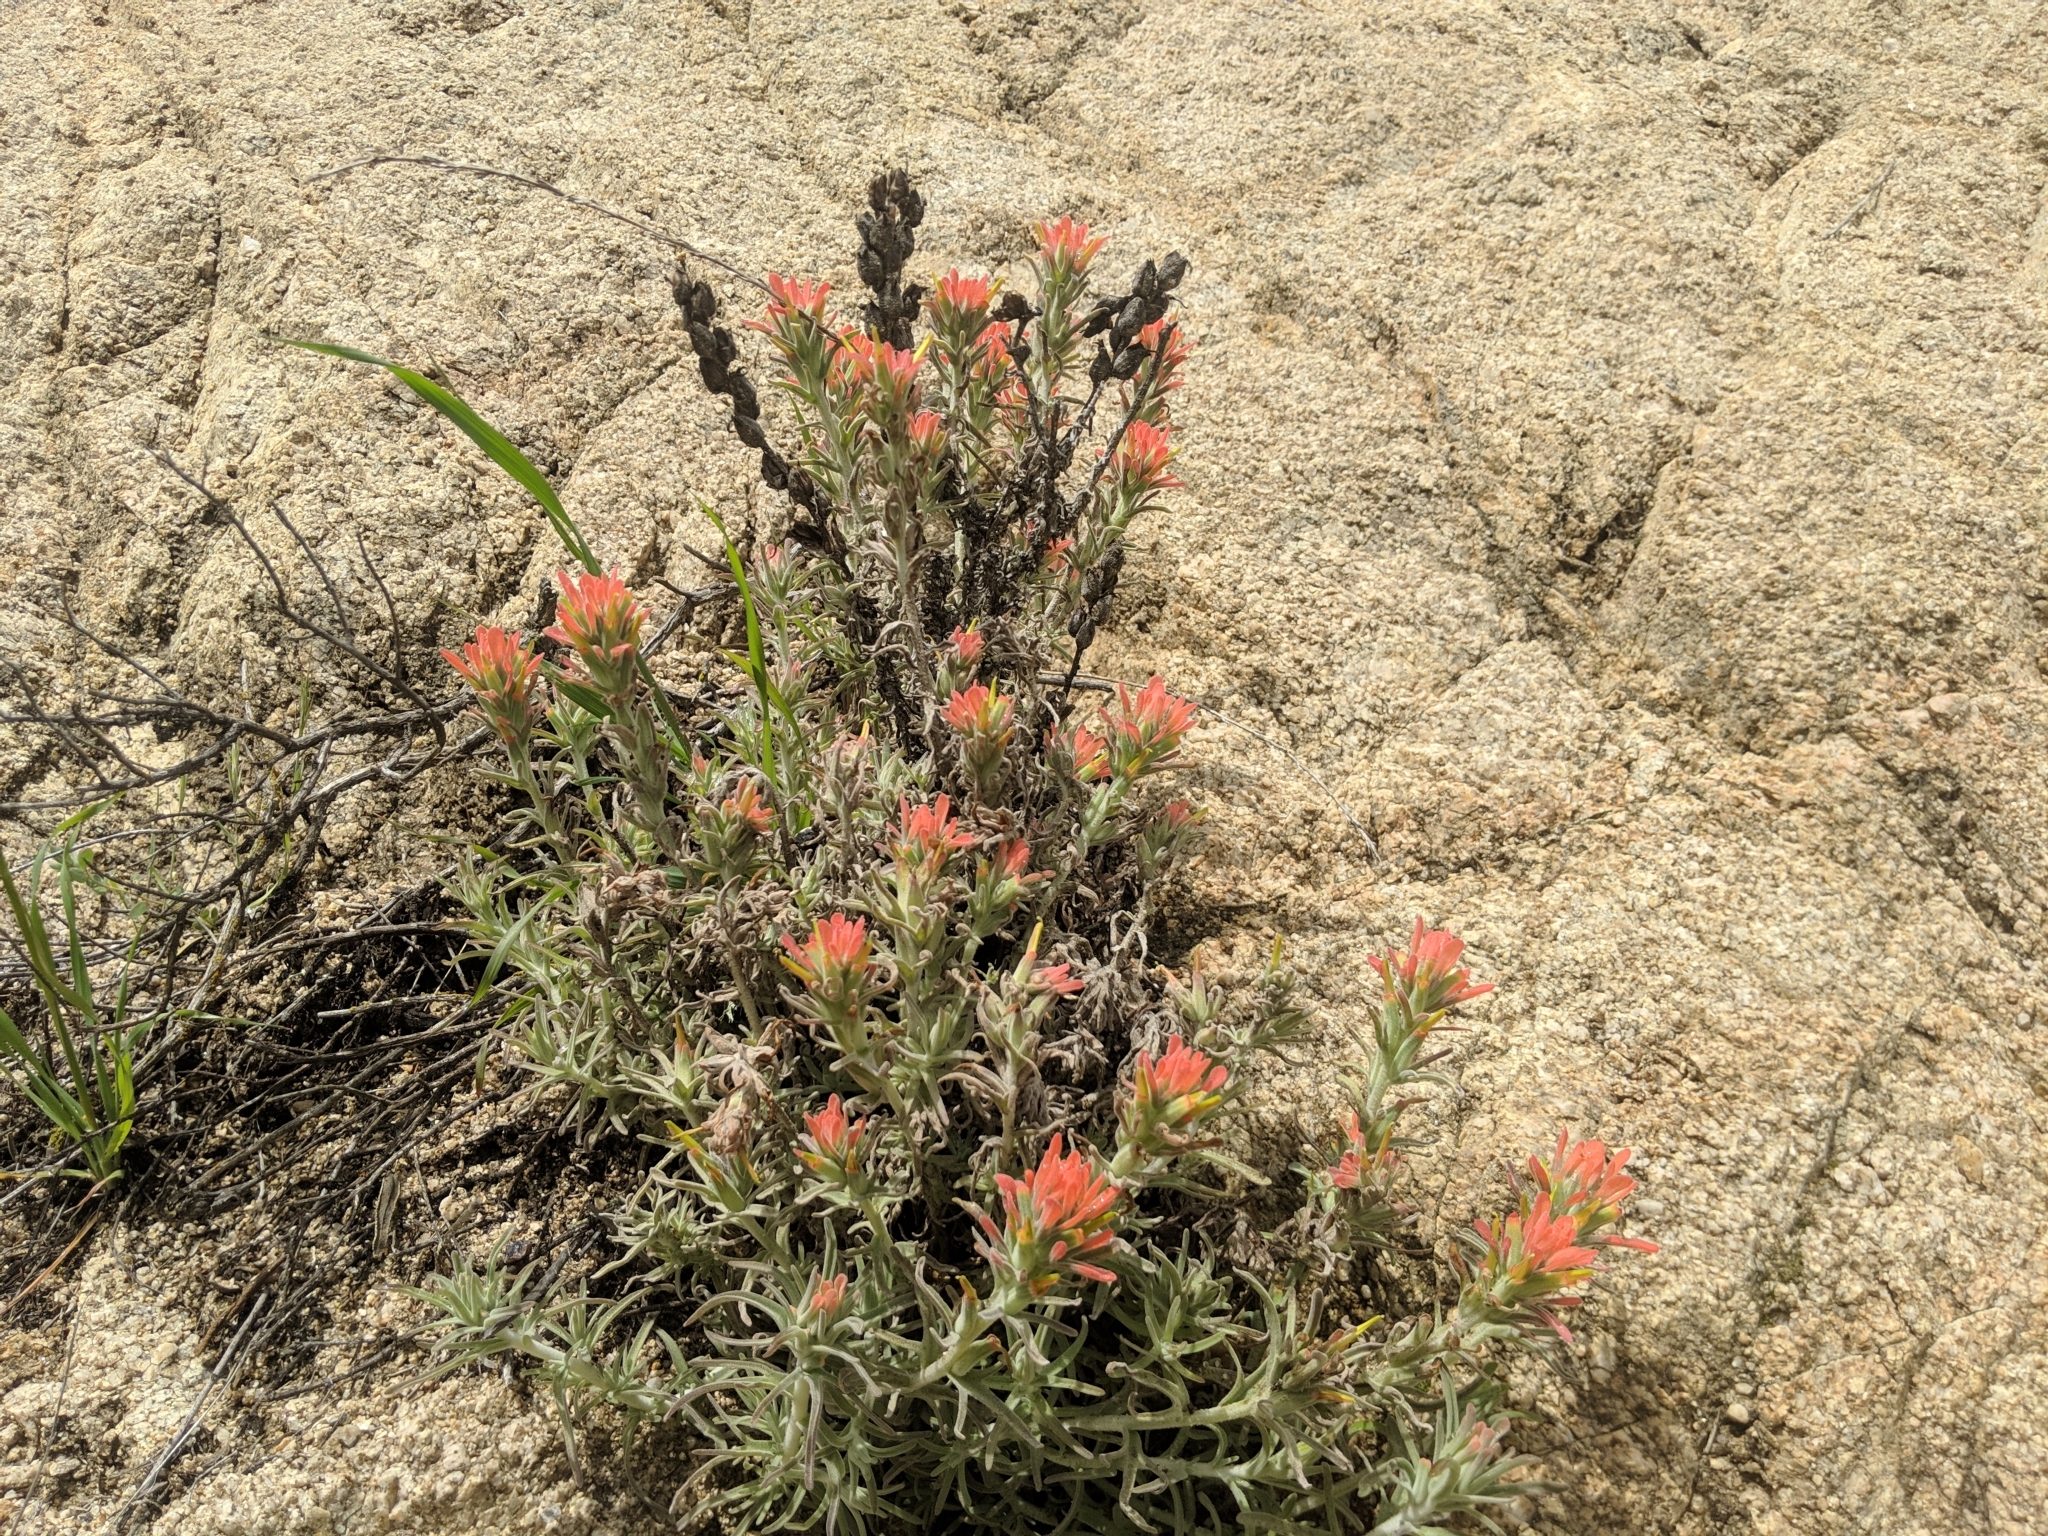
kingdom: Plantae
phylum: Tracheophyta
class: Magnoliopsida
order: Lamiales
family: Orobanchaceae
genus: Castilleja
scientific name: Castilleja foliolosa
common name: Woolly indian paintbrush
